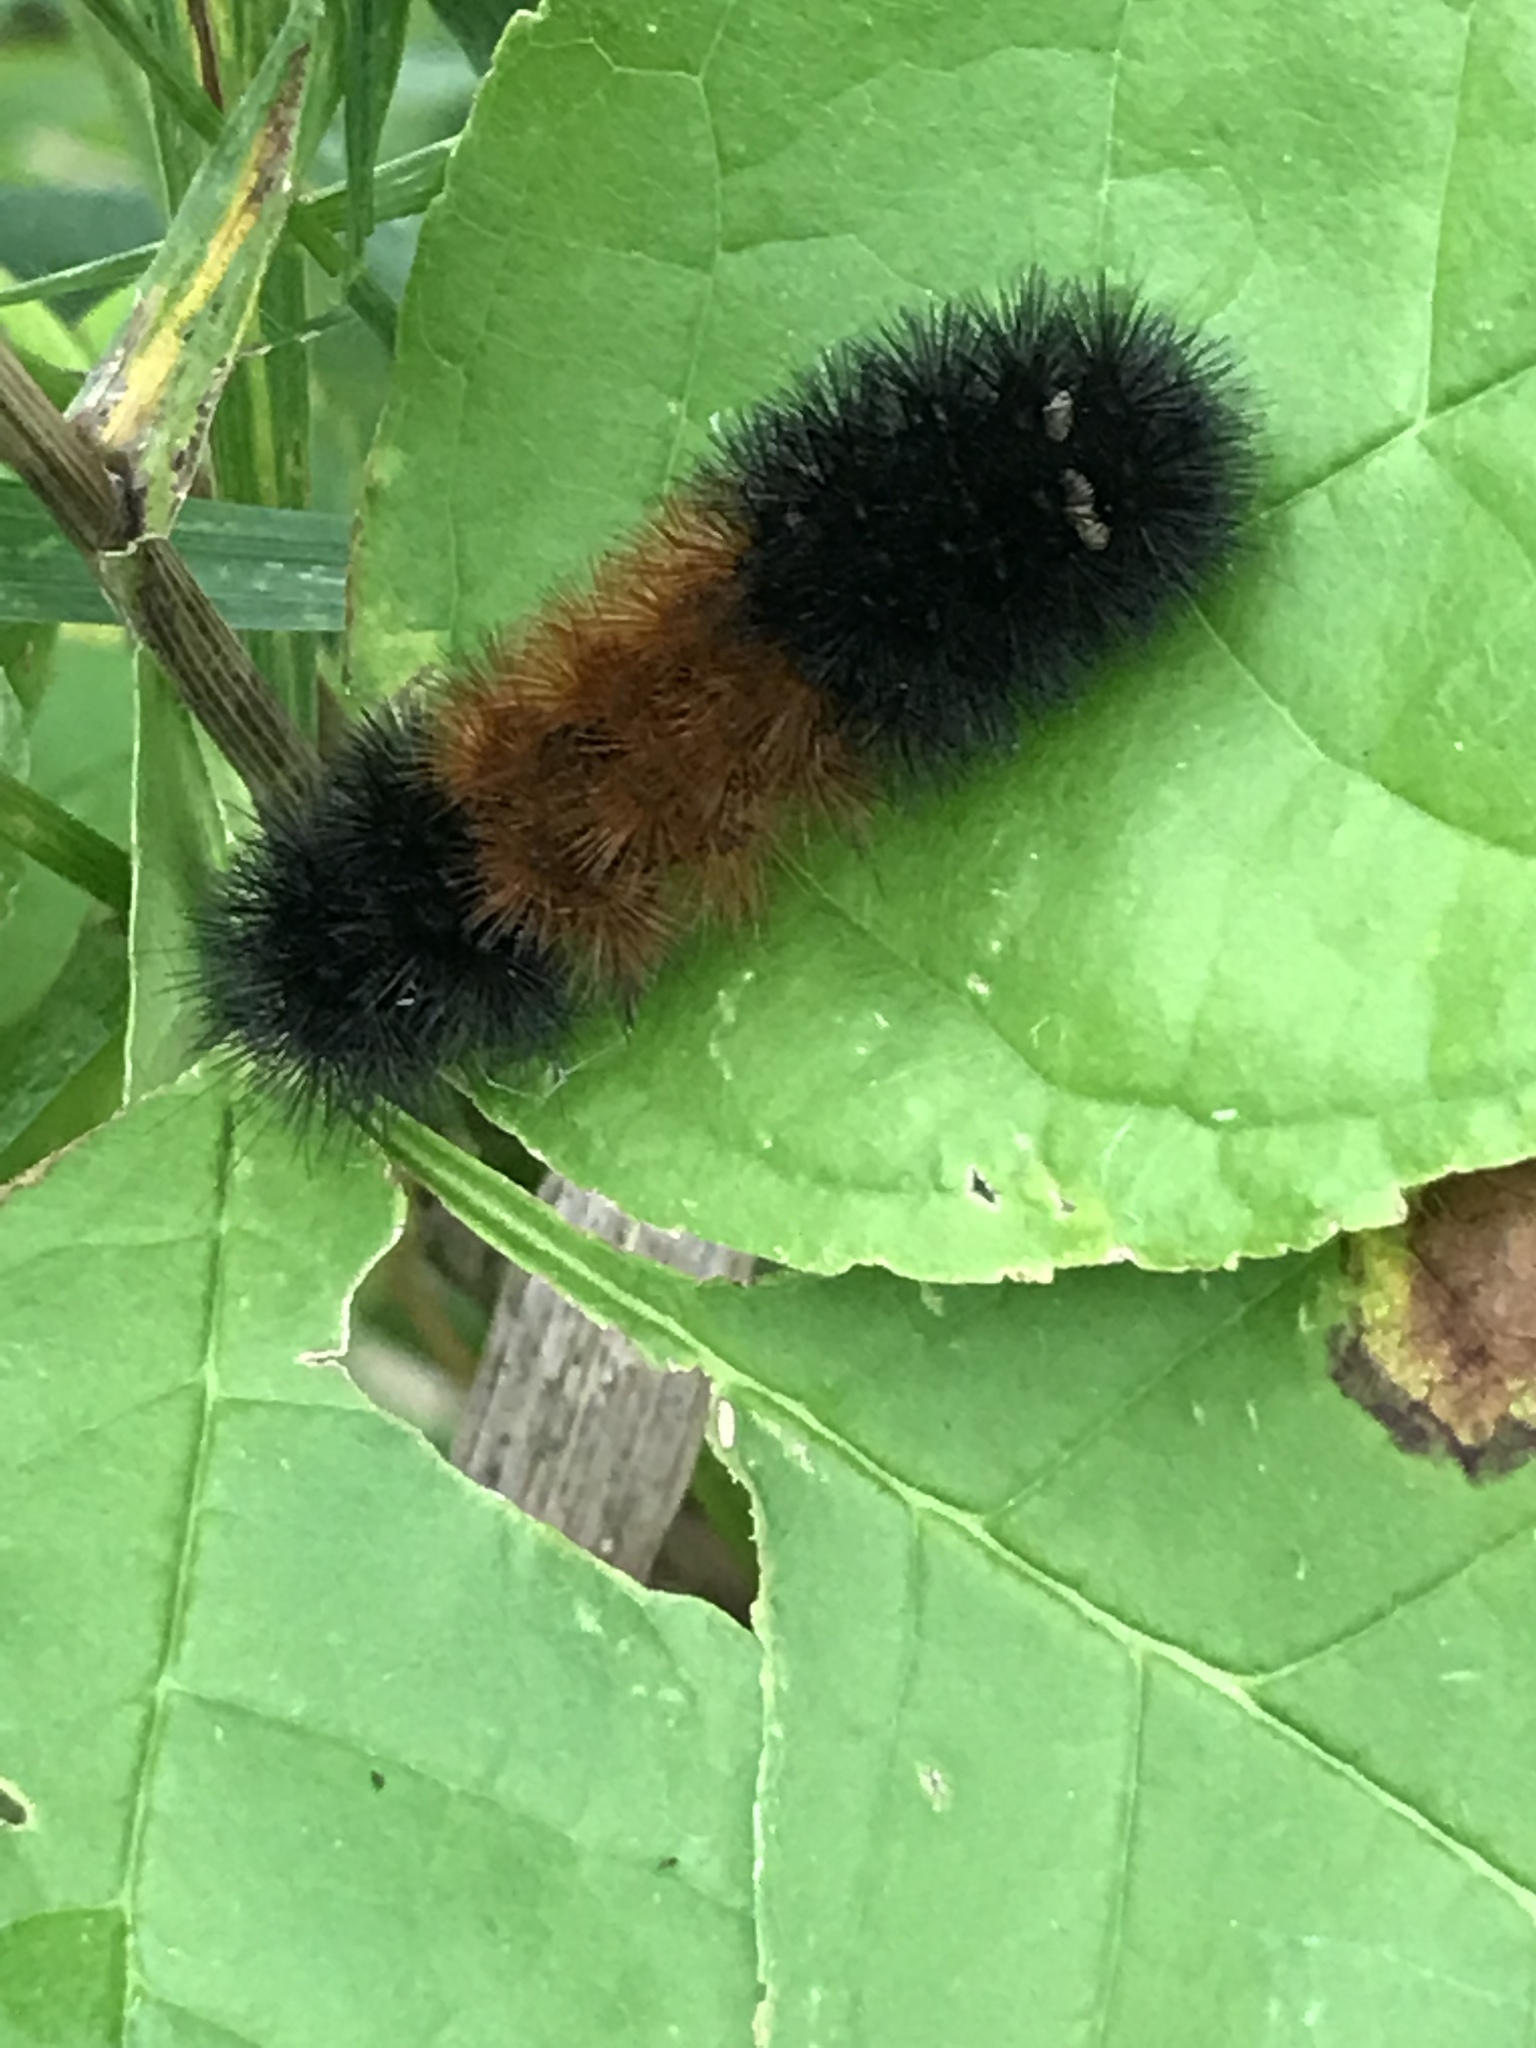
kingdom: Animalia
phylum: Arthropoda
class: Insecta
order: Lepidoptera
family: Erebidae
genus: Pyrrharctia
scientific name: Pyrrharctia isabella
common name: Isabella tiger moth
